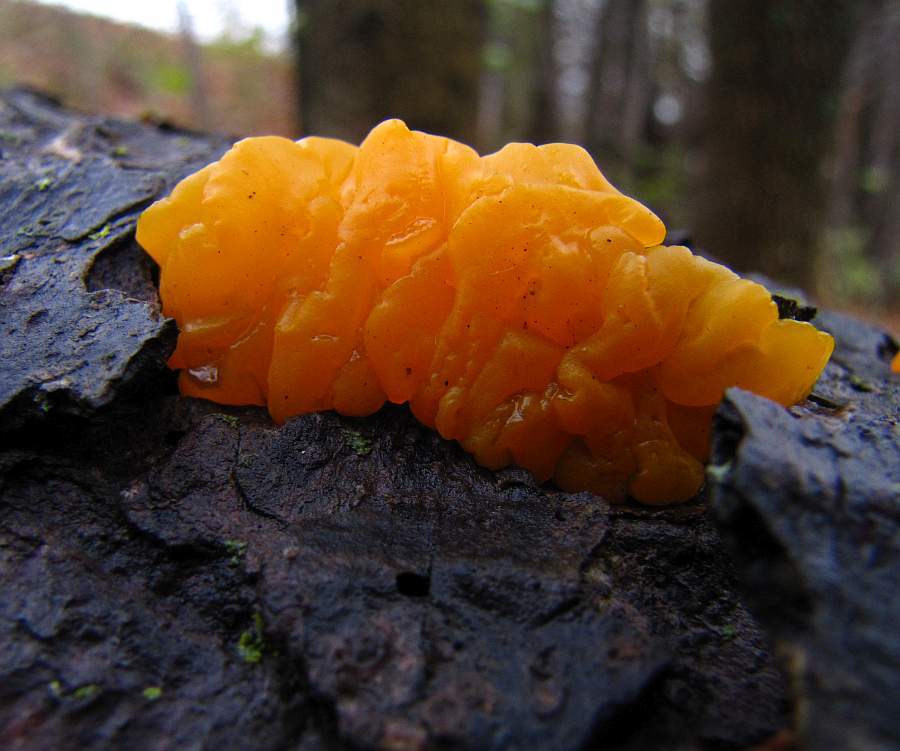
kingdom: Fungi
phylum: Basidiomycota
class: Dacrymycetes
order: Dacrymycetales
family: Dacrymycetaceae
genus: Dacrymyces
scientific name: Dacrymyces chrysospermus
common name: Orange jelly spot
